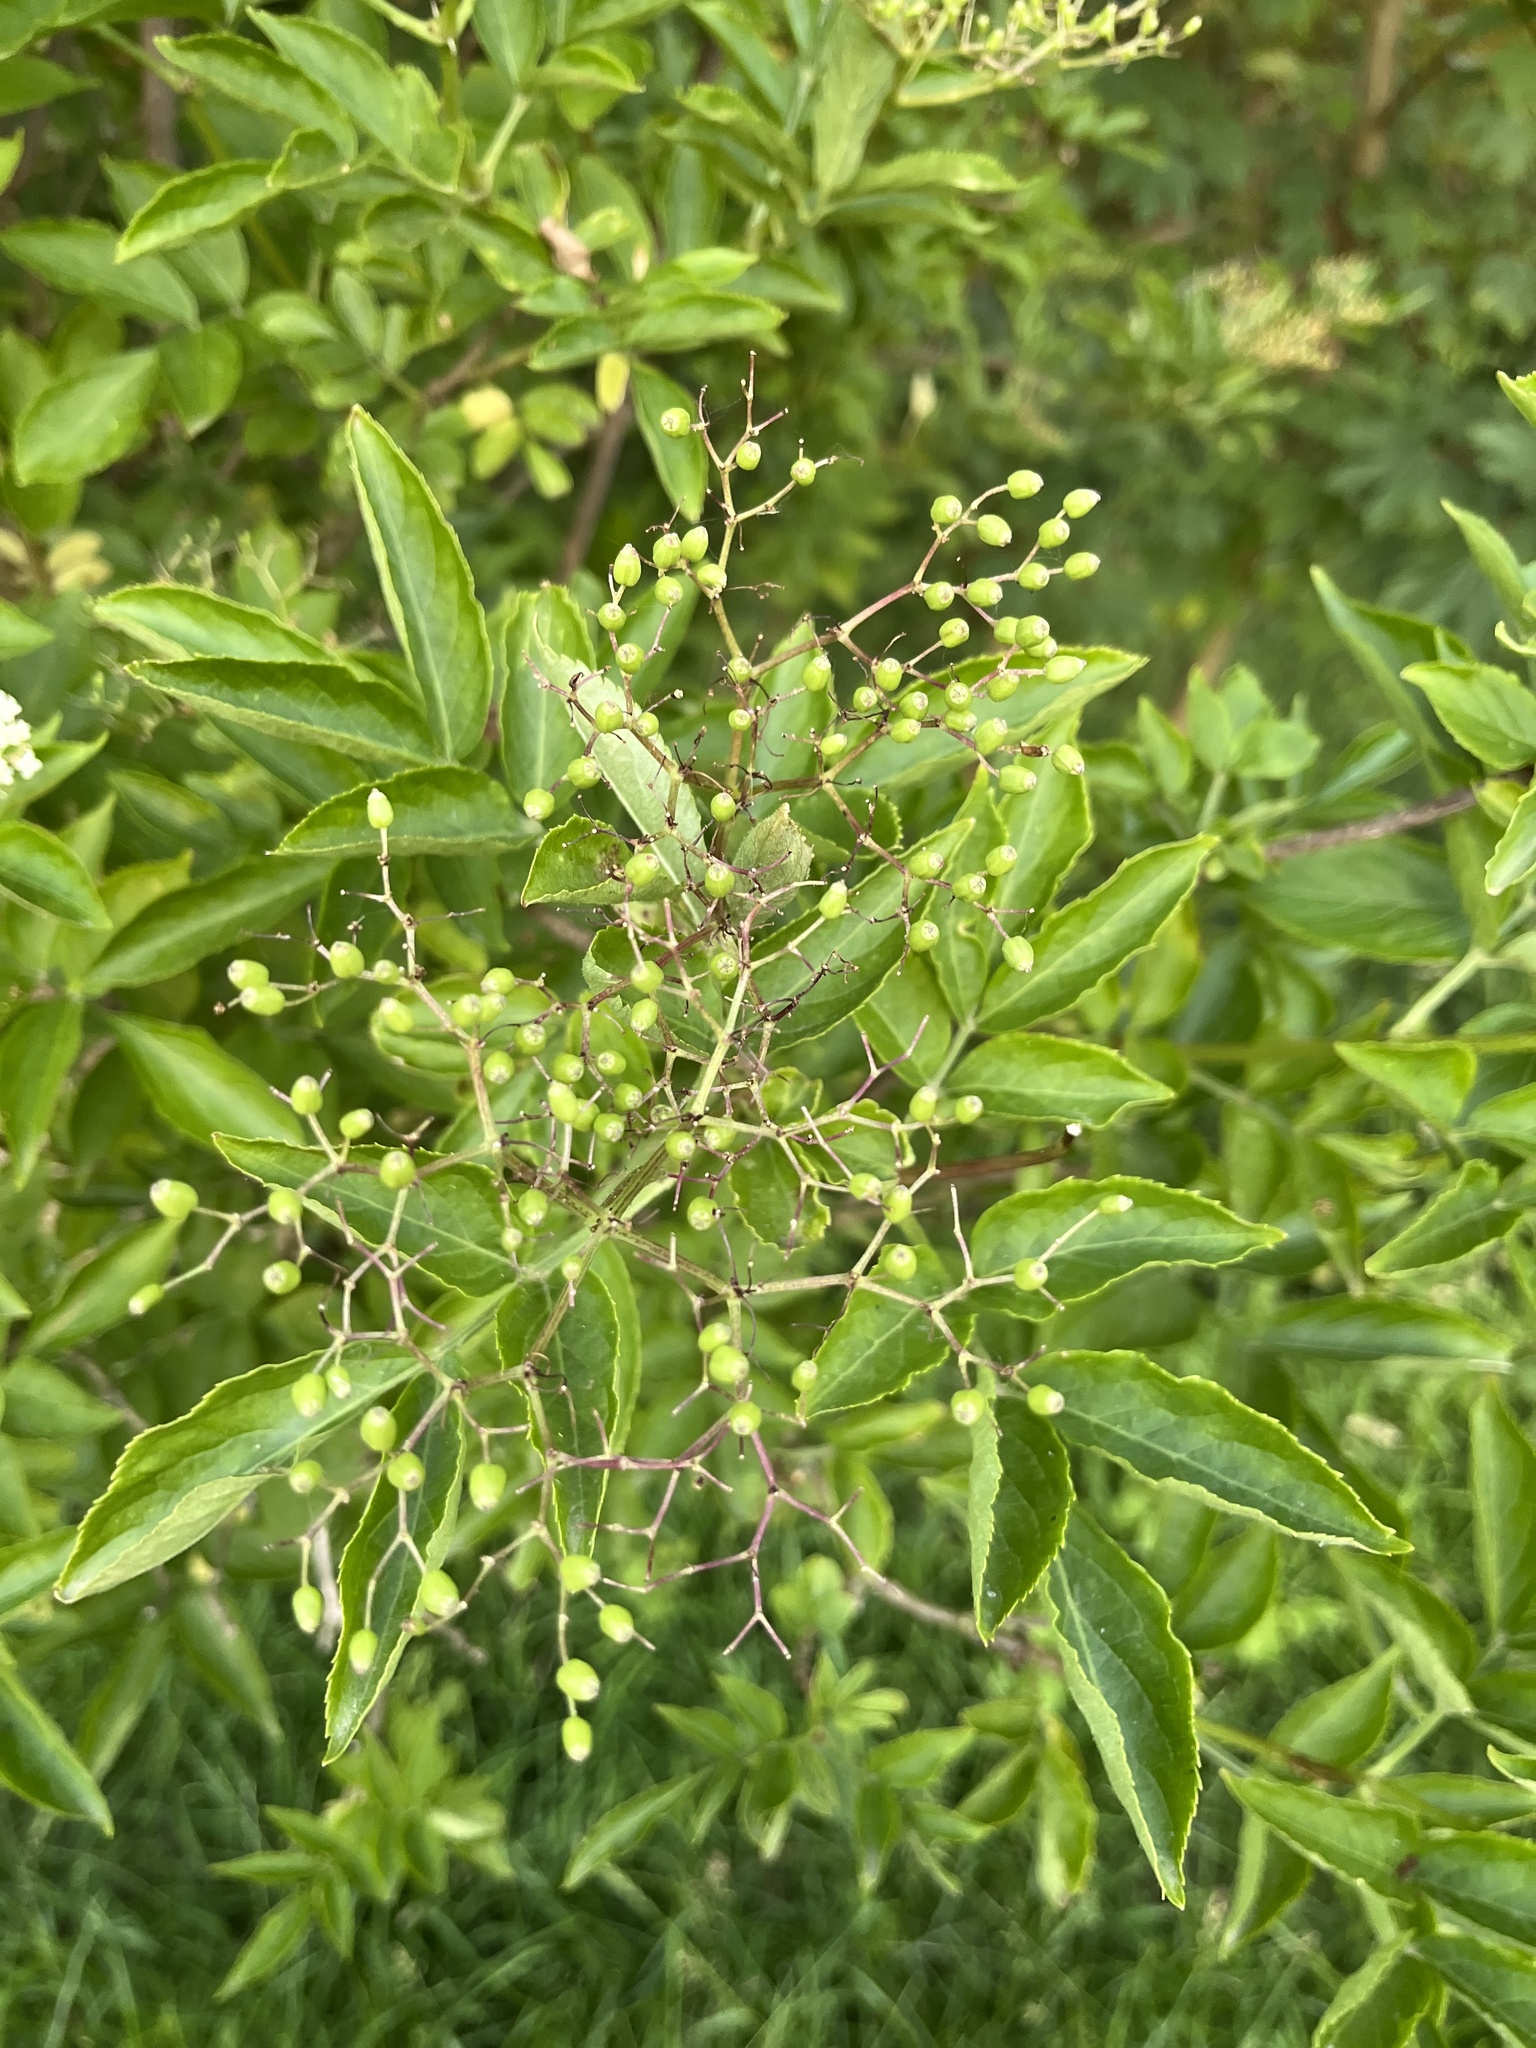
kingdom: Plantae
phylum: Tracheophyta
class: Magnoliopsida
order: Dipsacales
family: Viburnaceae
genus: Sambucus
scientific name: Sambucus nigra
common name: Elder
